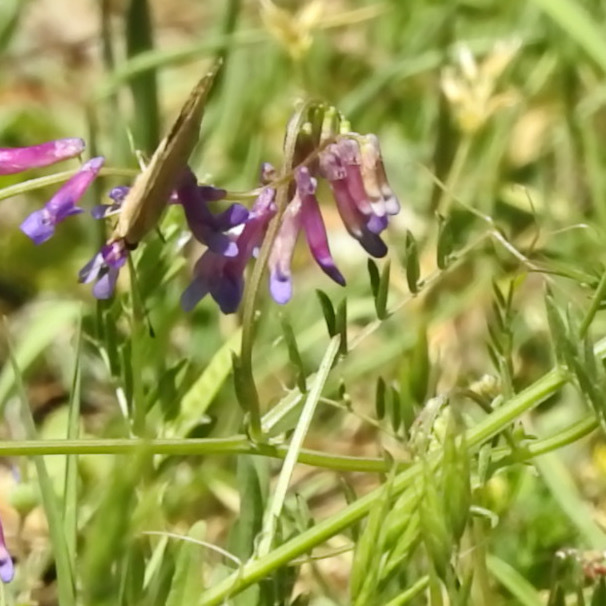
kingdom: Plantae
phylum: Tracheophyta
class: Magnoliopsida
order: Fabales
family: Fabaceae
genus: Vicia
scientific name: Vicia villosa
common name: Fodder vetch
